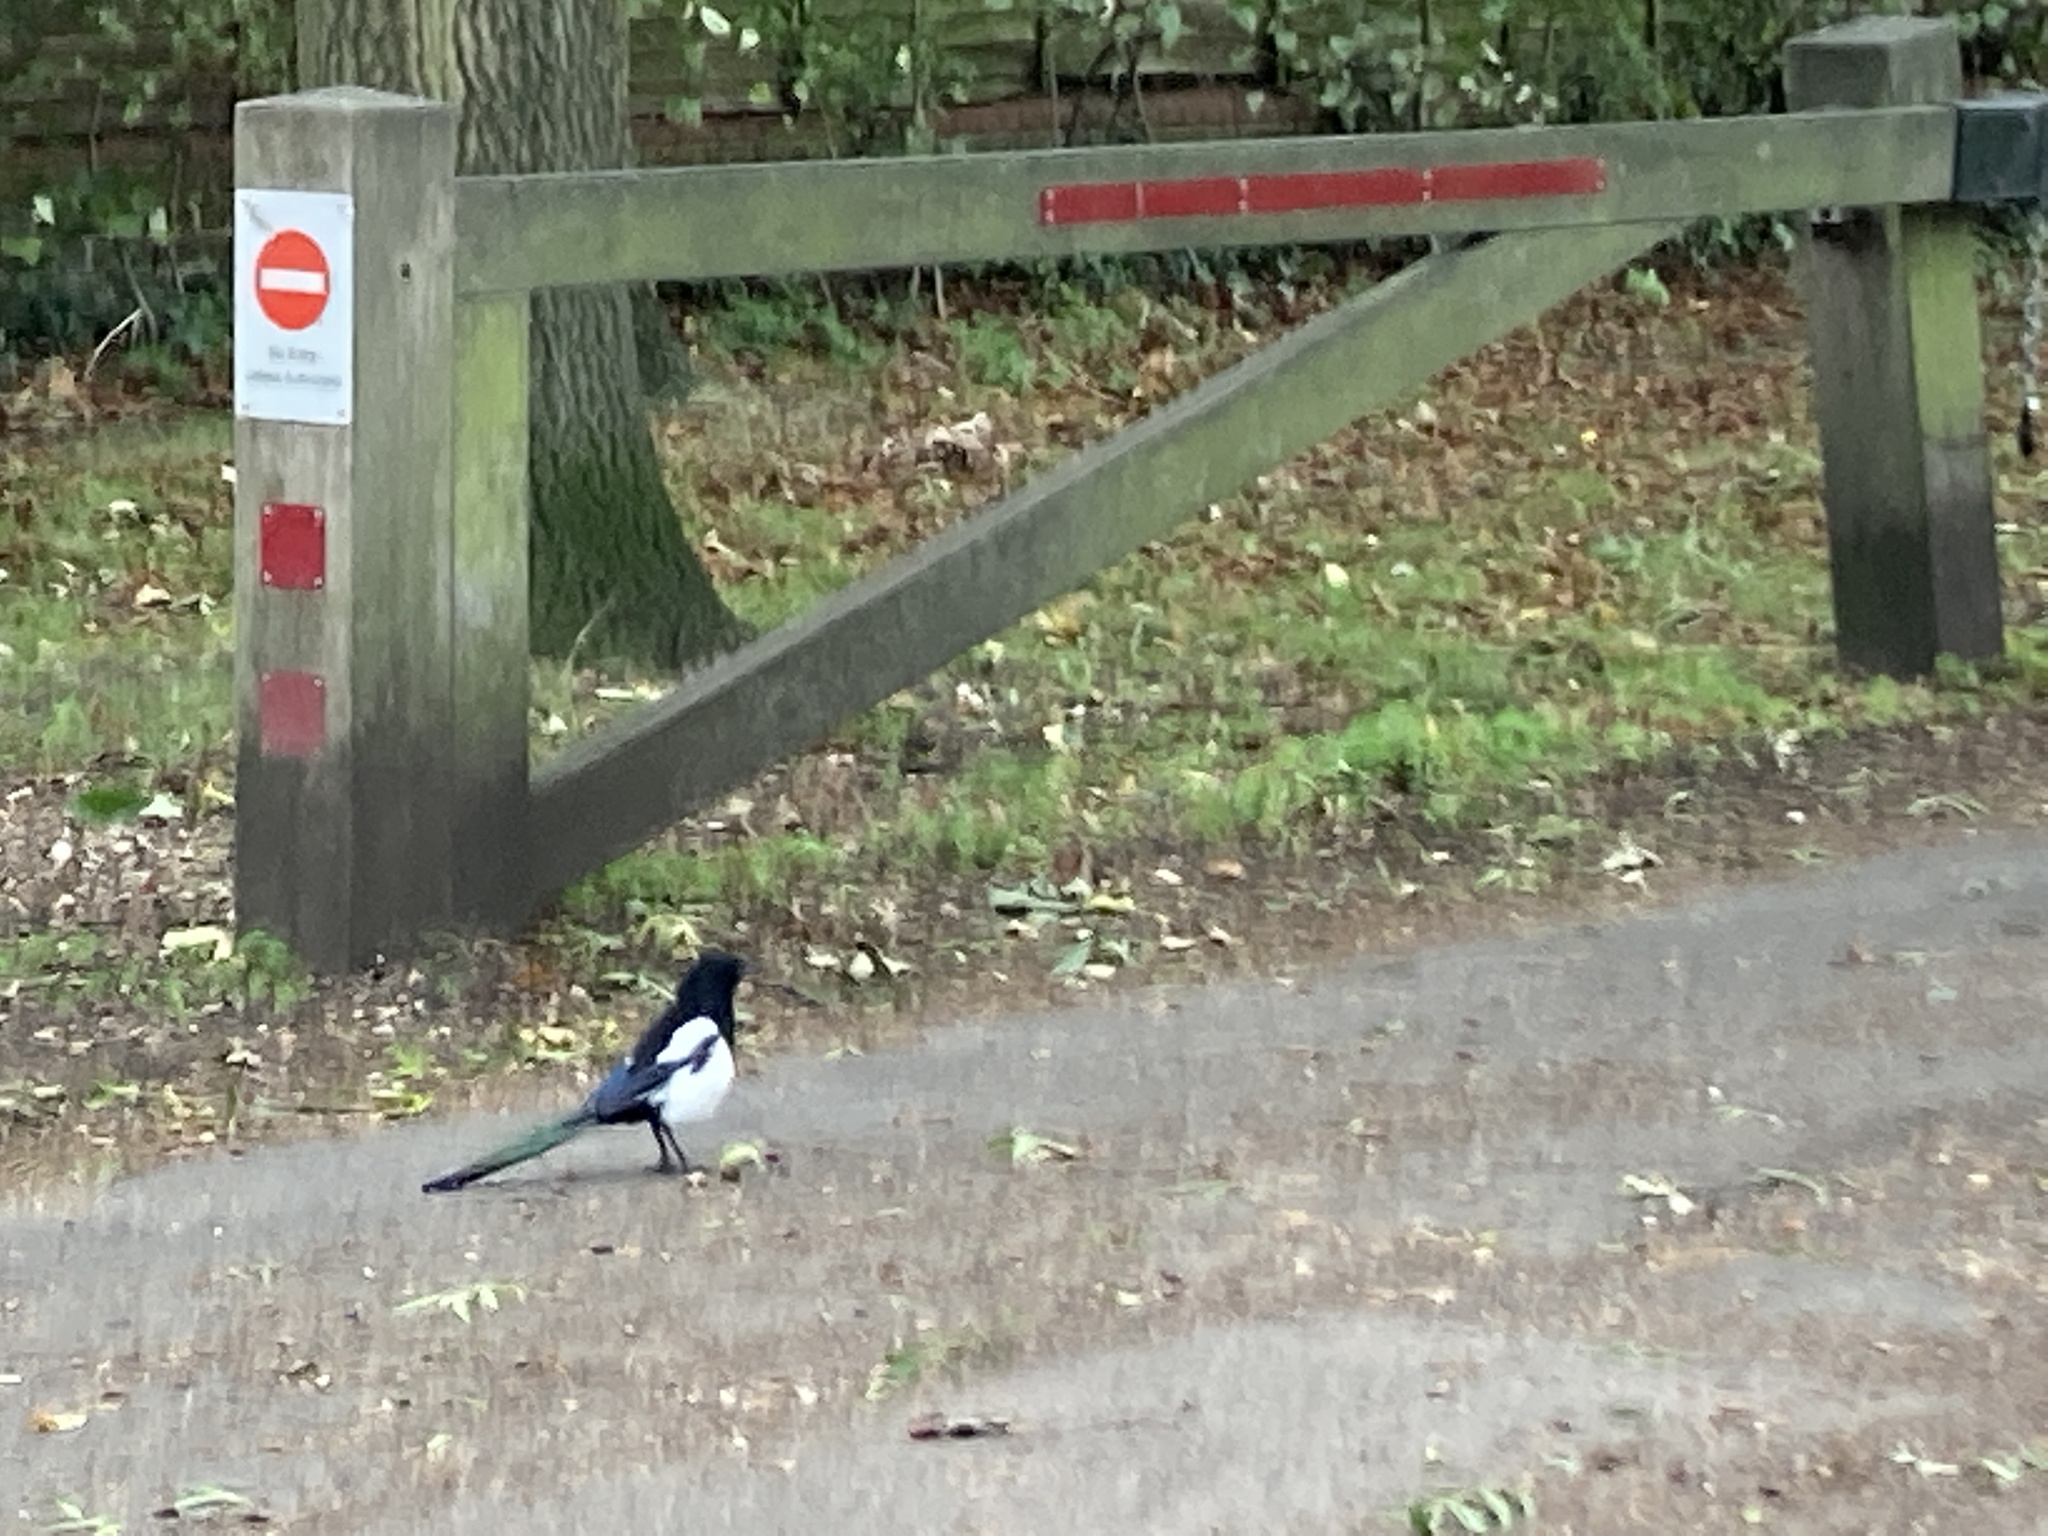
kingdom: Animalia
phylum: Chordata
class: Aves
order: Passeriformes
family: Corvidae
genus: Pica
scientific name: Pica pica
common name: Eurasian magpie
